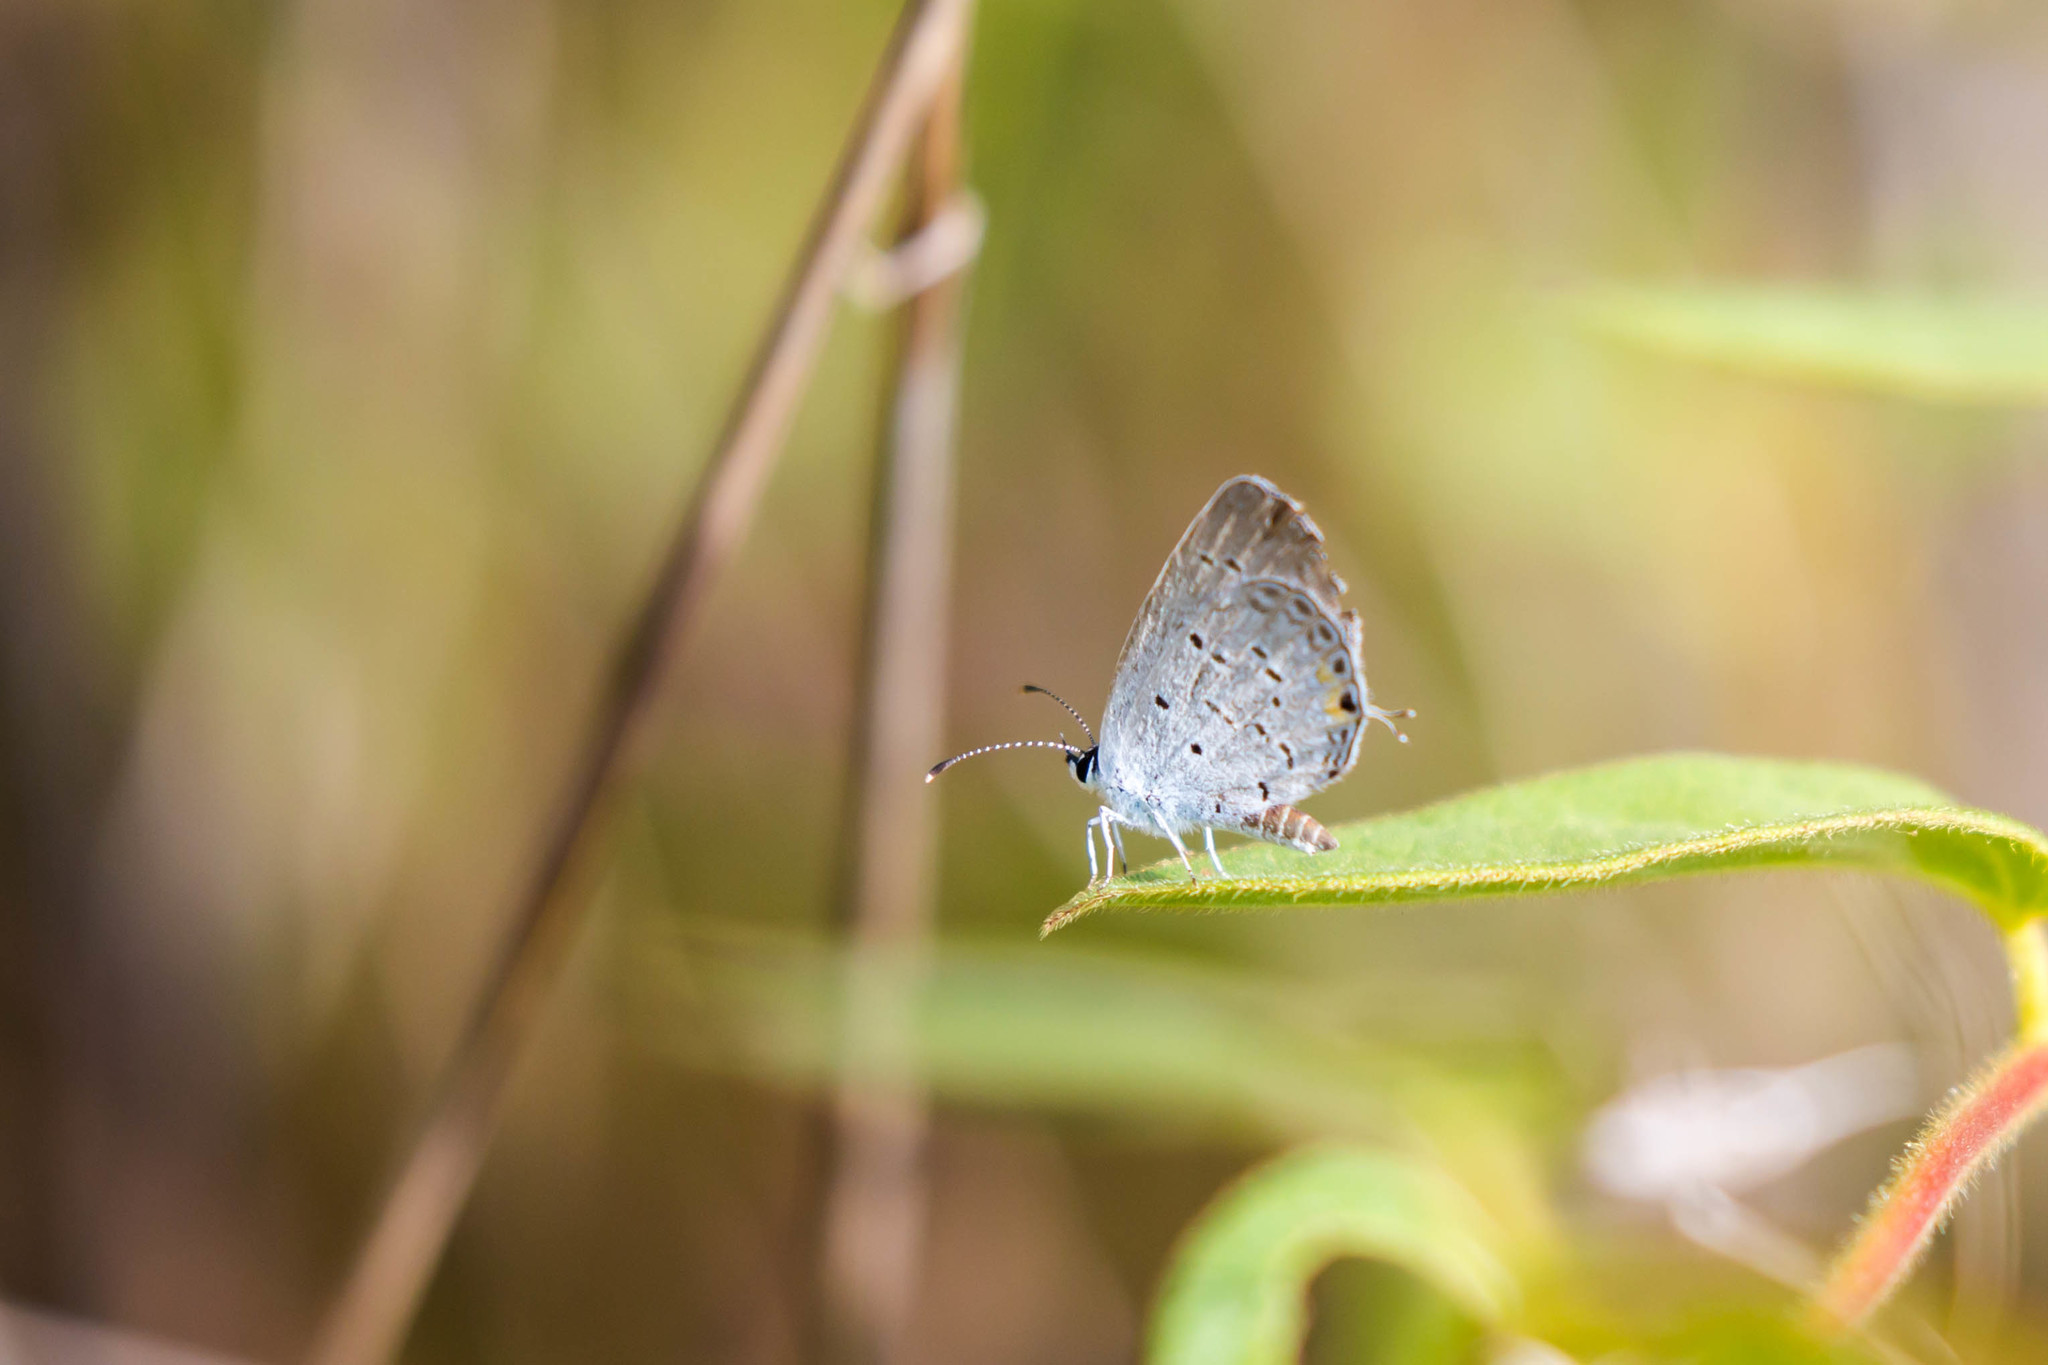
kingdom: Animalia
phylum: Arthropoda
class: Insecta
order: Lepidoptera
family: Lycaenidae
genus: Elkalyce
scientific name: Elkalyce comyntas
